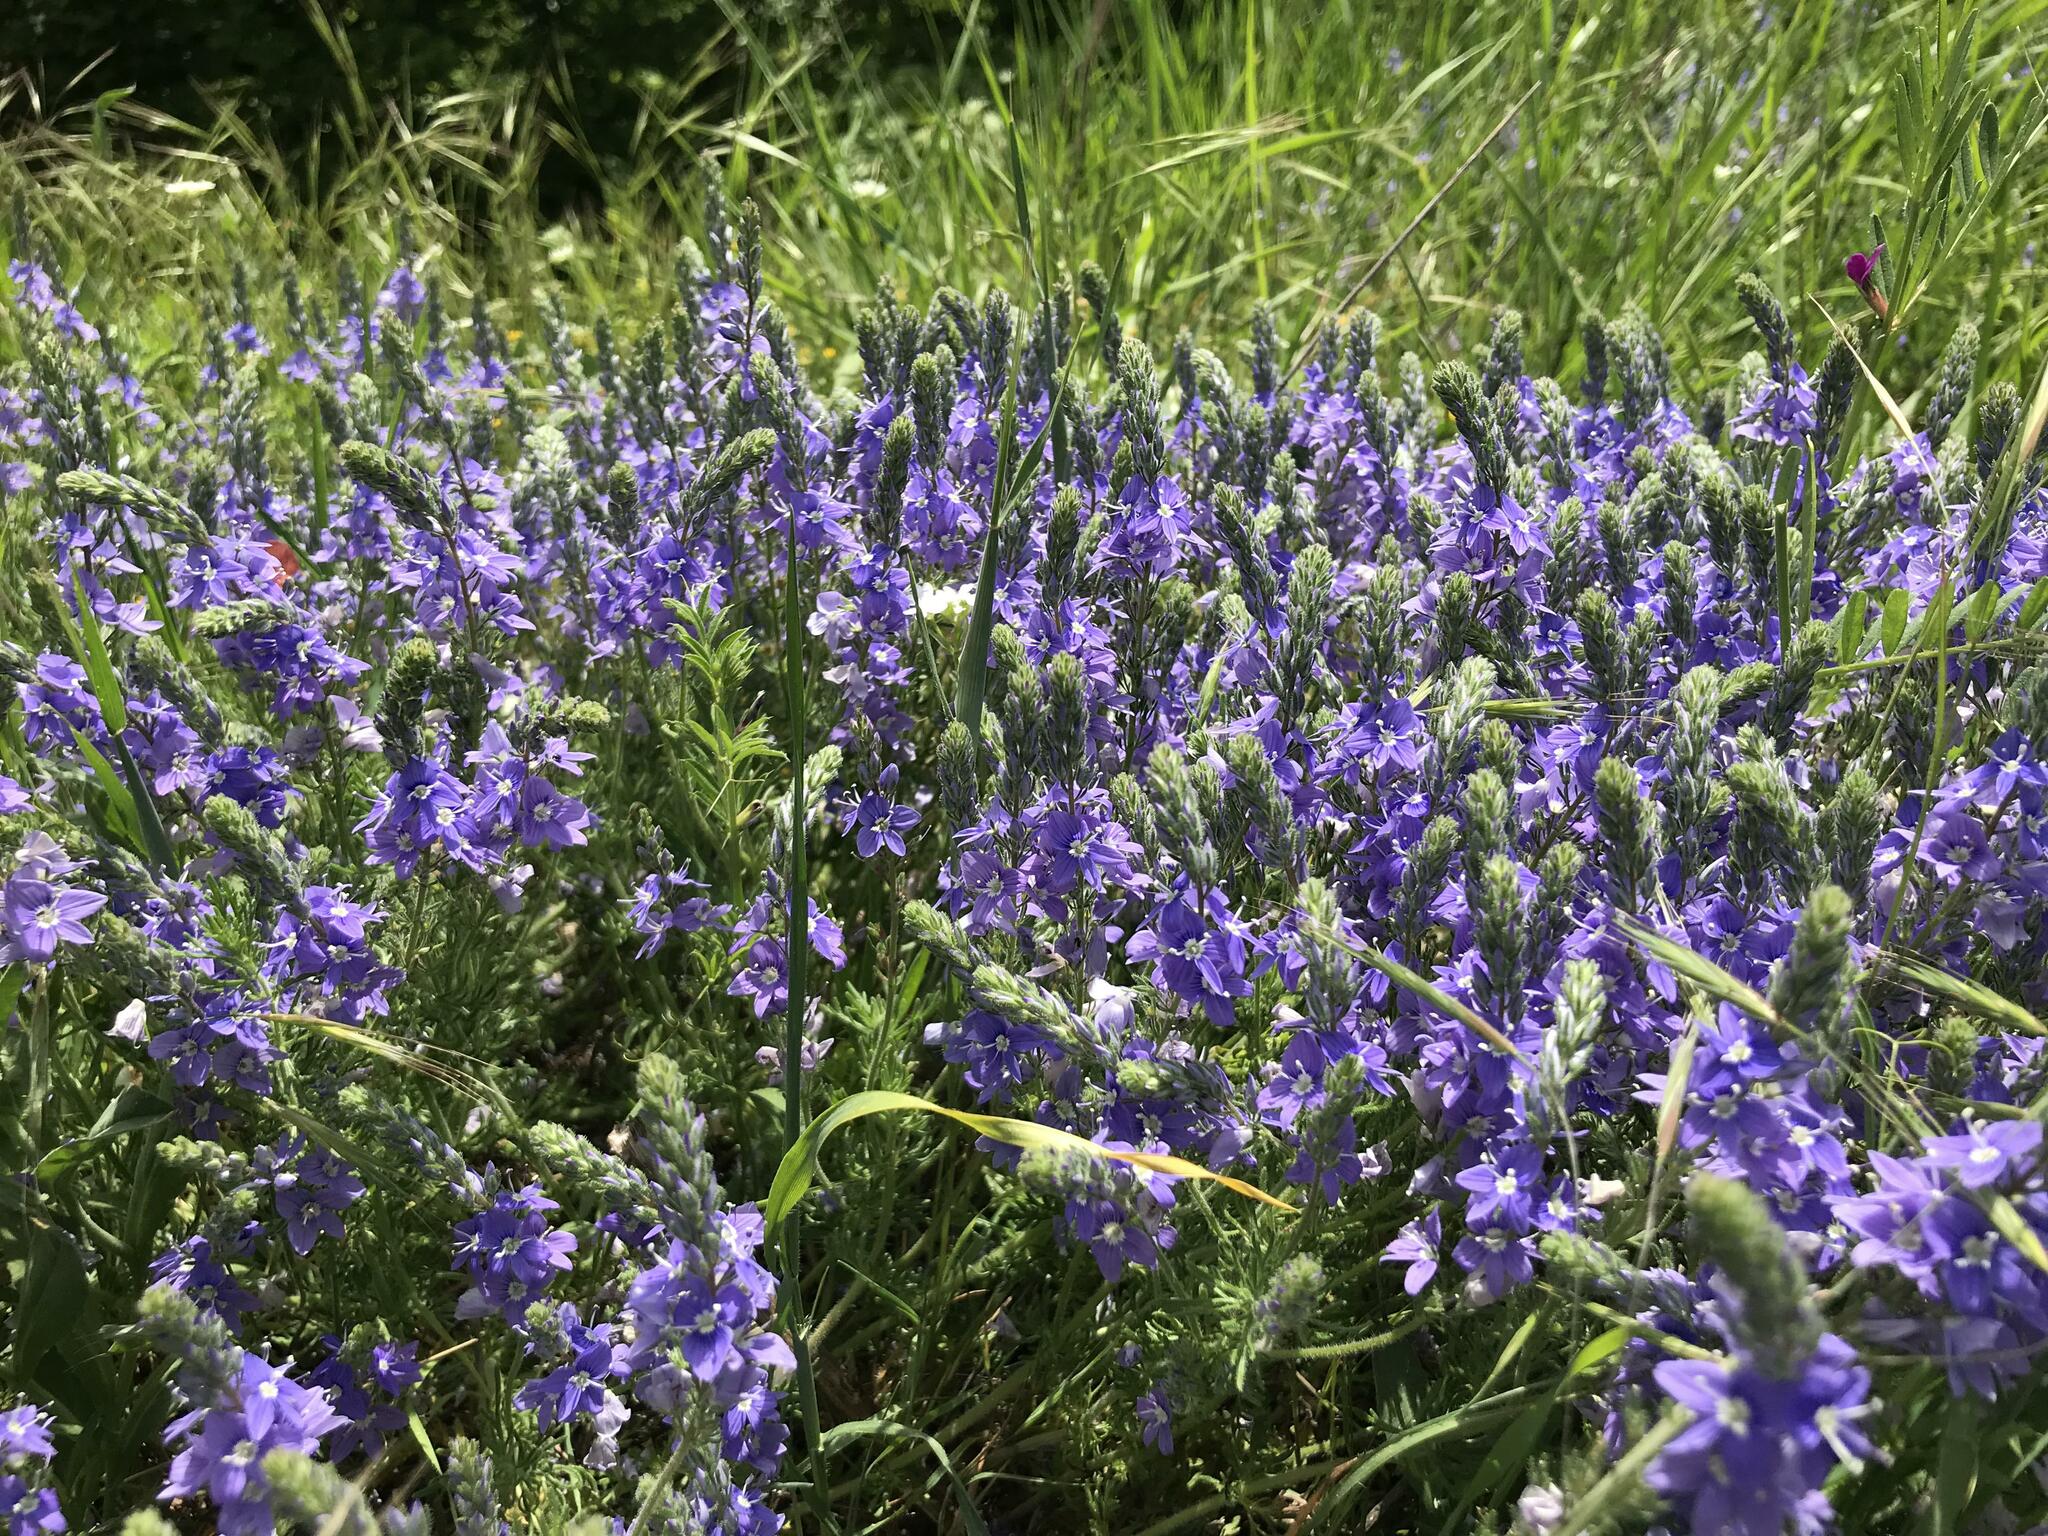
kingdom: Plantae
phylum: Tracheophyta
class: Magnoliopsida
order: Lamiales
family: Plantaginaceae
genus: Veronica
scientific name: Veronica capsellicarpa
